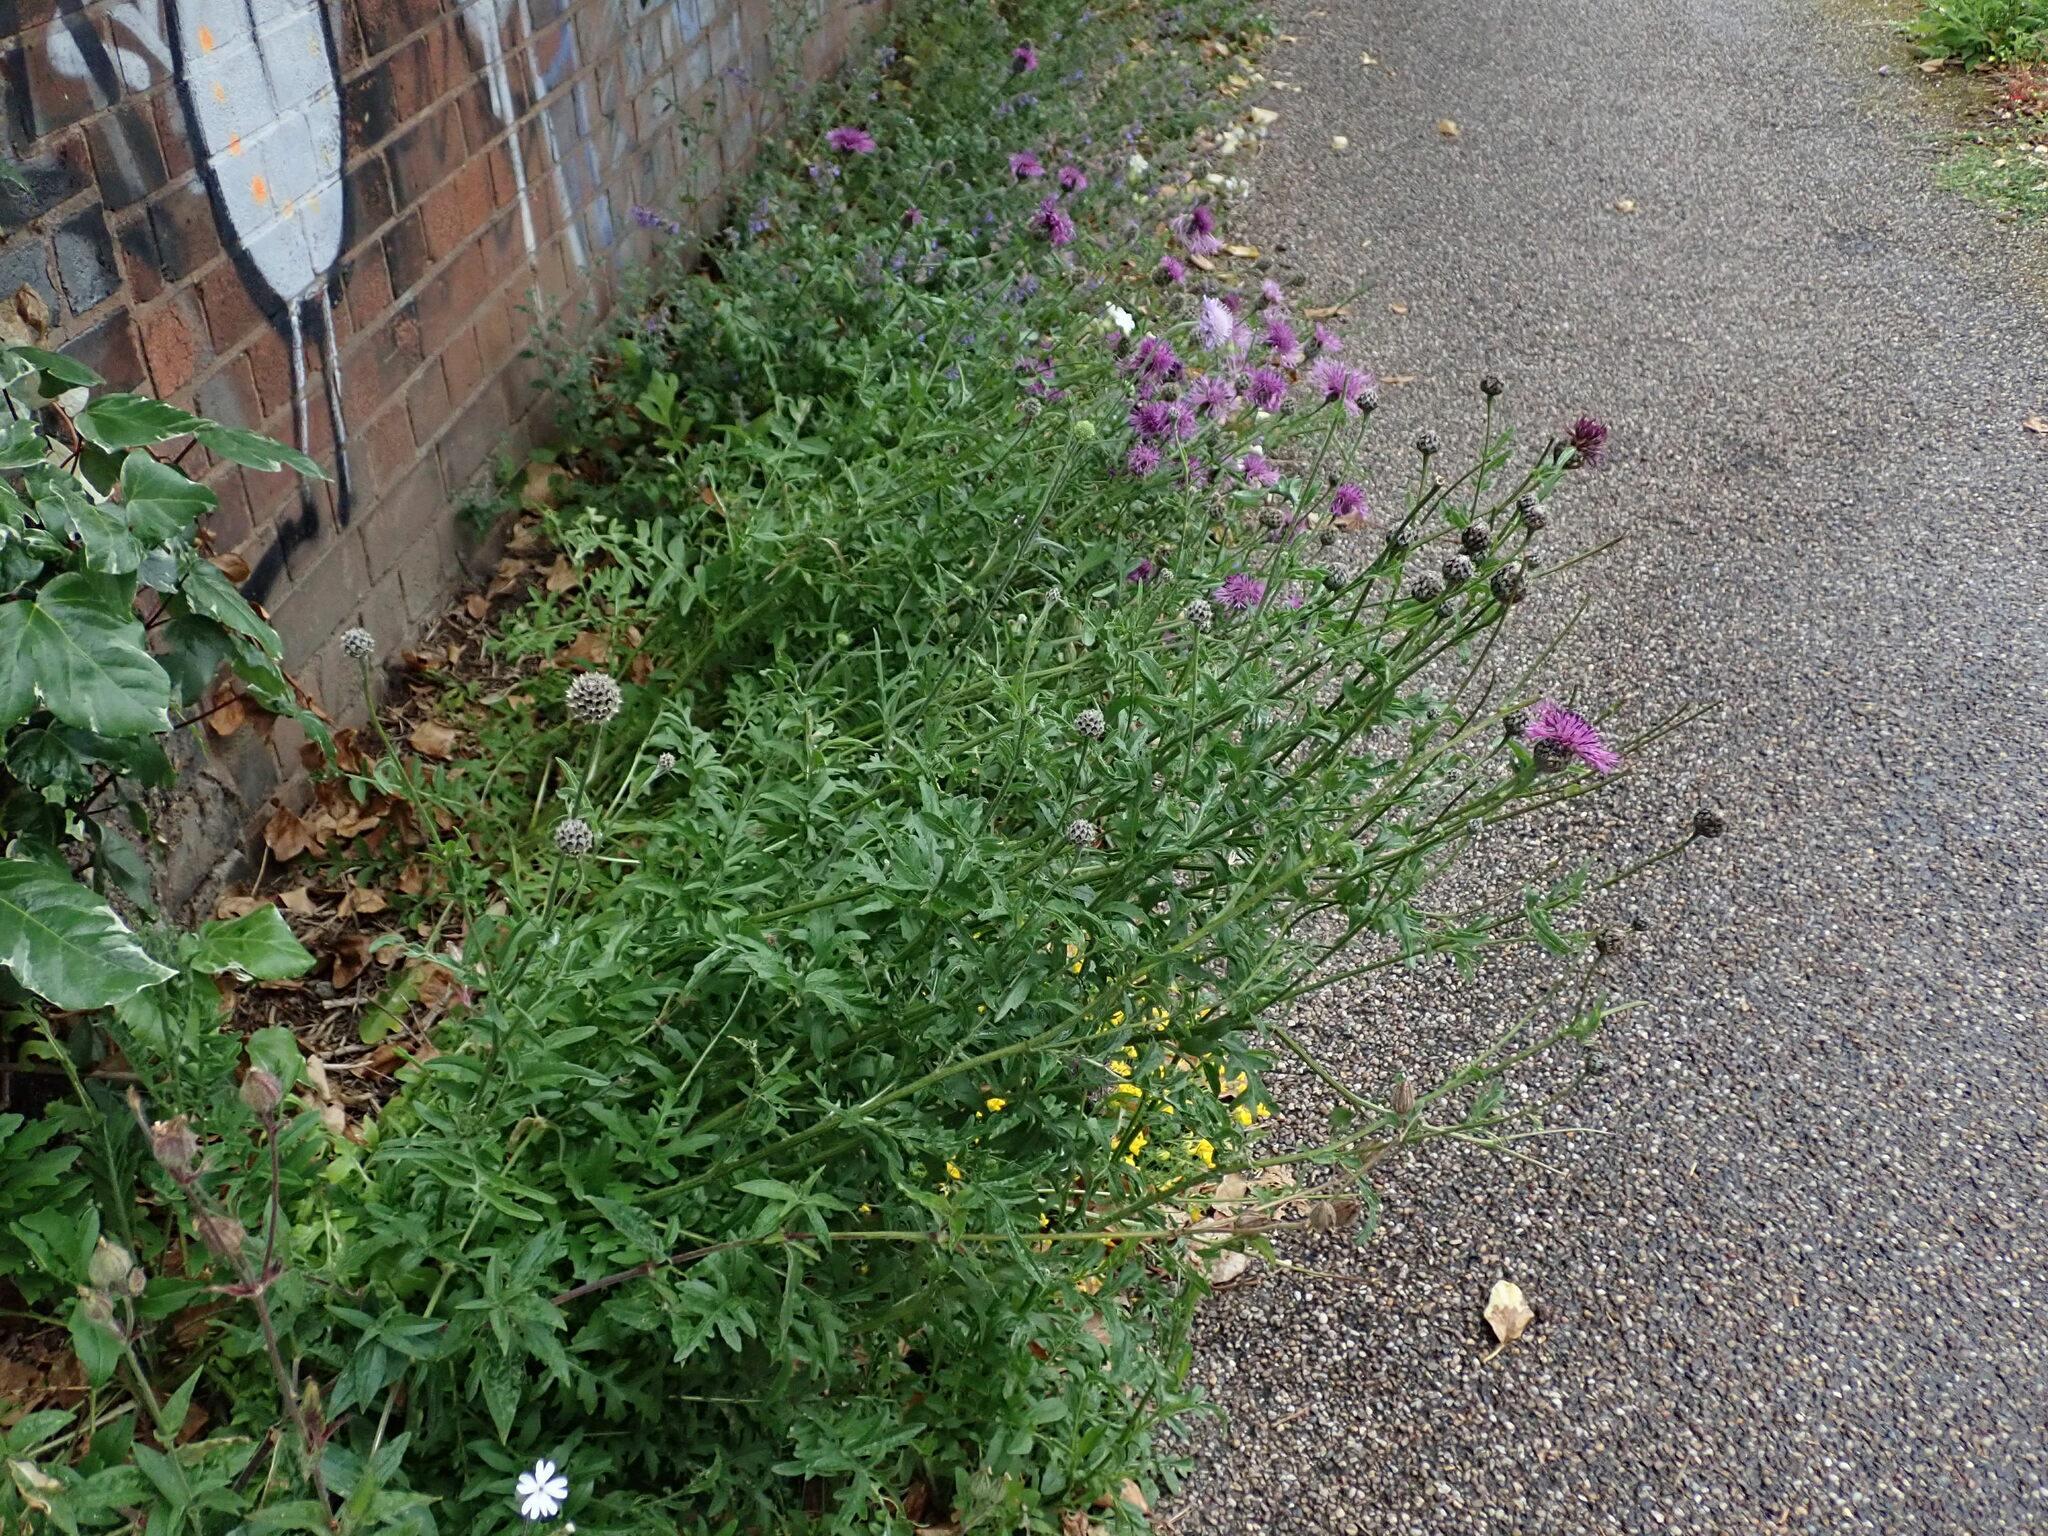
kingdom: Plantae
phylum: Tracheophyta
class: Magnoliopsida
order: Asterales
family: Asteraceae
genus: Centaurea
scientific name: Centaurea scabiosa
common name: Greater knapweed
